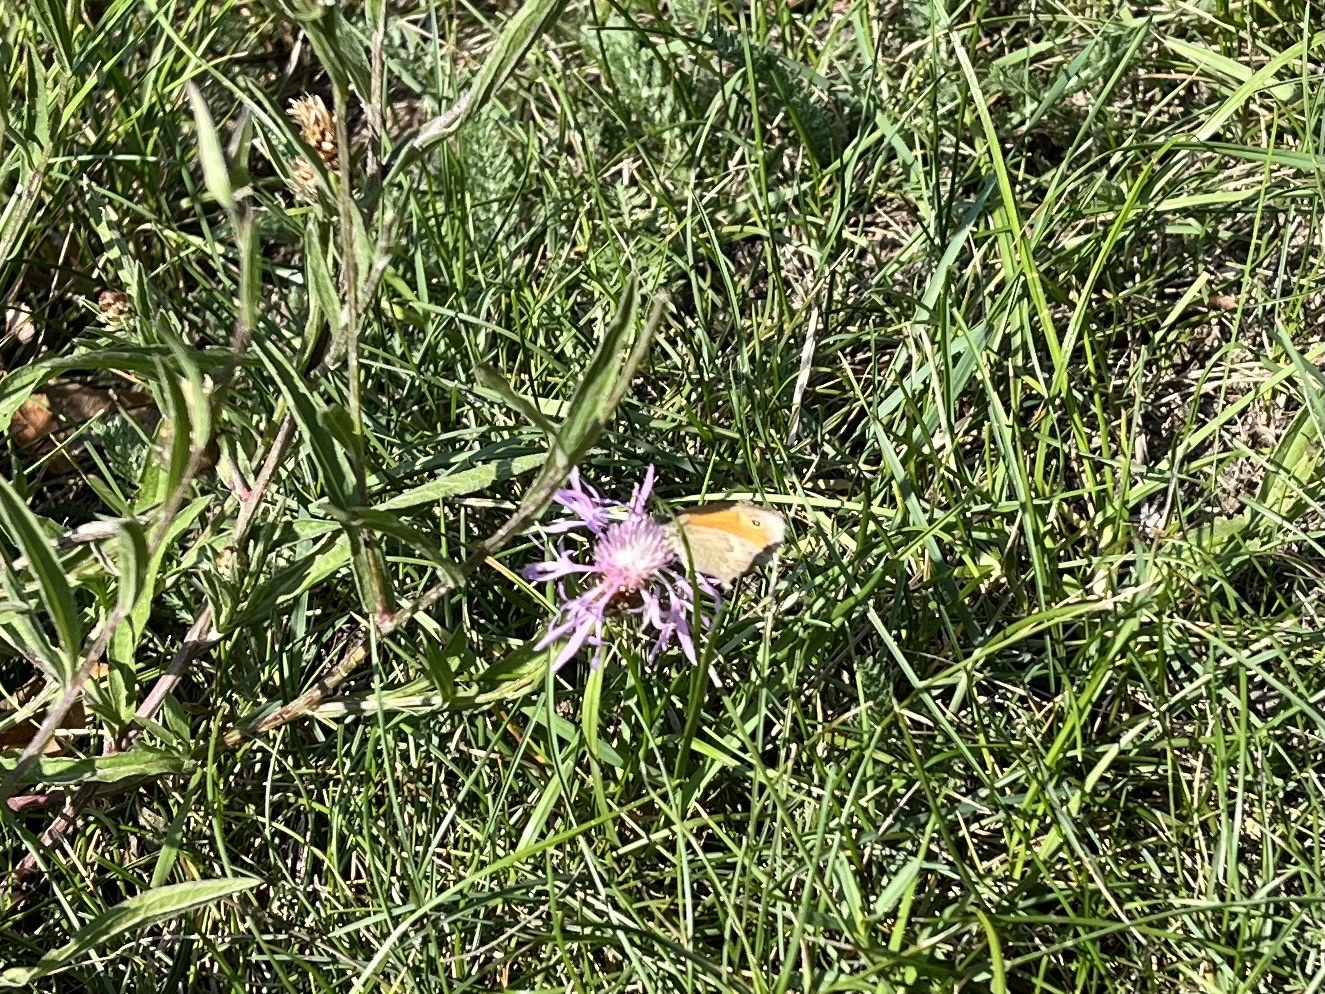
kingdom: Animalia
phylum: Arthropoda
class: Insecta
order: Lepidoptera
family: Nymphalidae
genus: Coenonympha
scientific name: Coenonympha pamphilus
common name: Small heath
